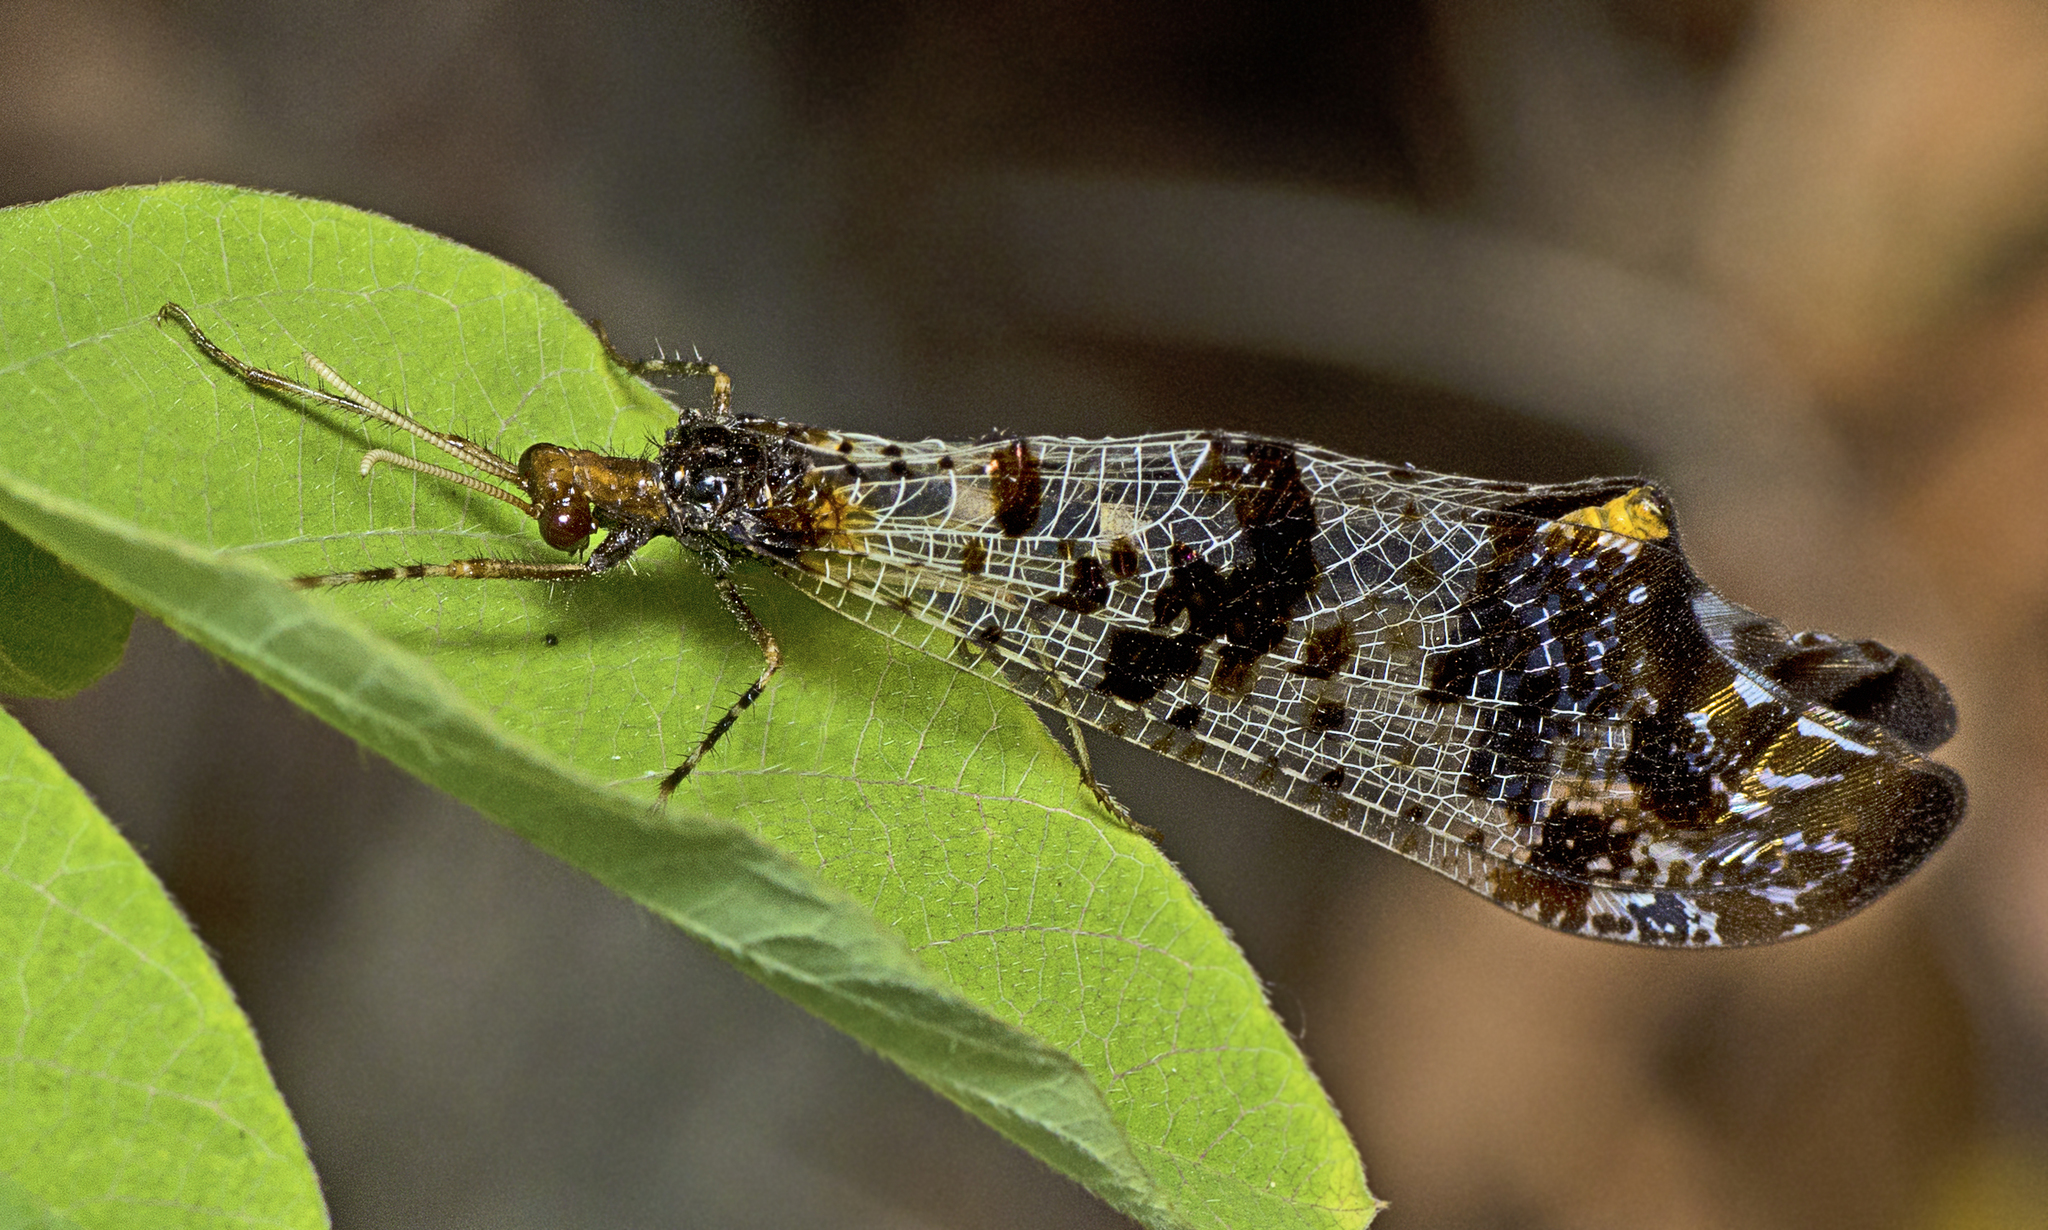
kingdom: Animalia
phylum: Arthropoda
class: Insecta
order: Neuroptera
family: Myrmeleontidae
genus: Periclystus
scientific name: Periclystus circuiter
